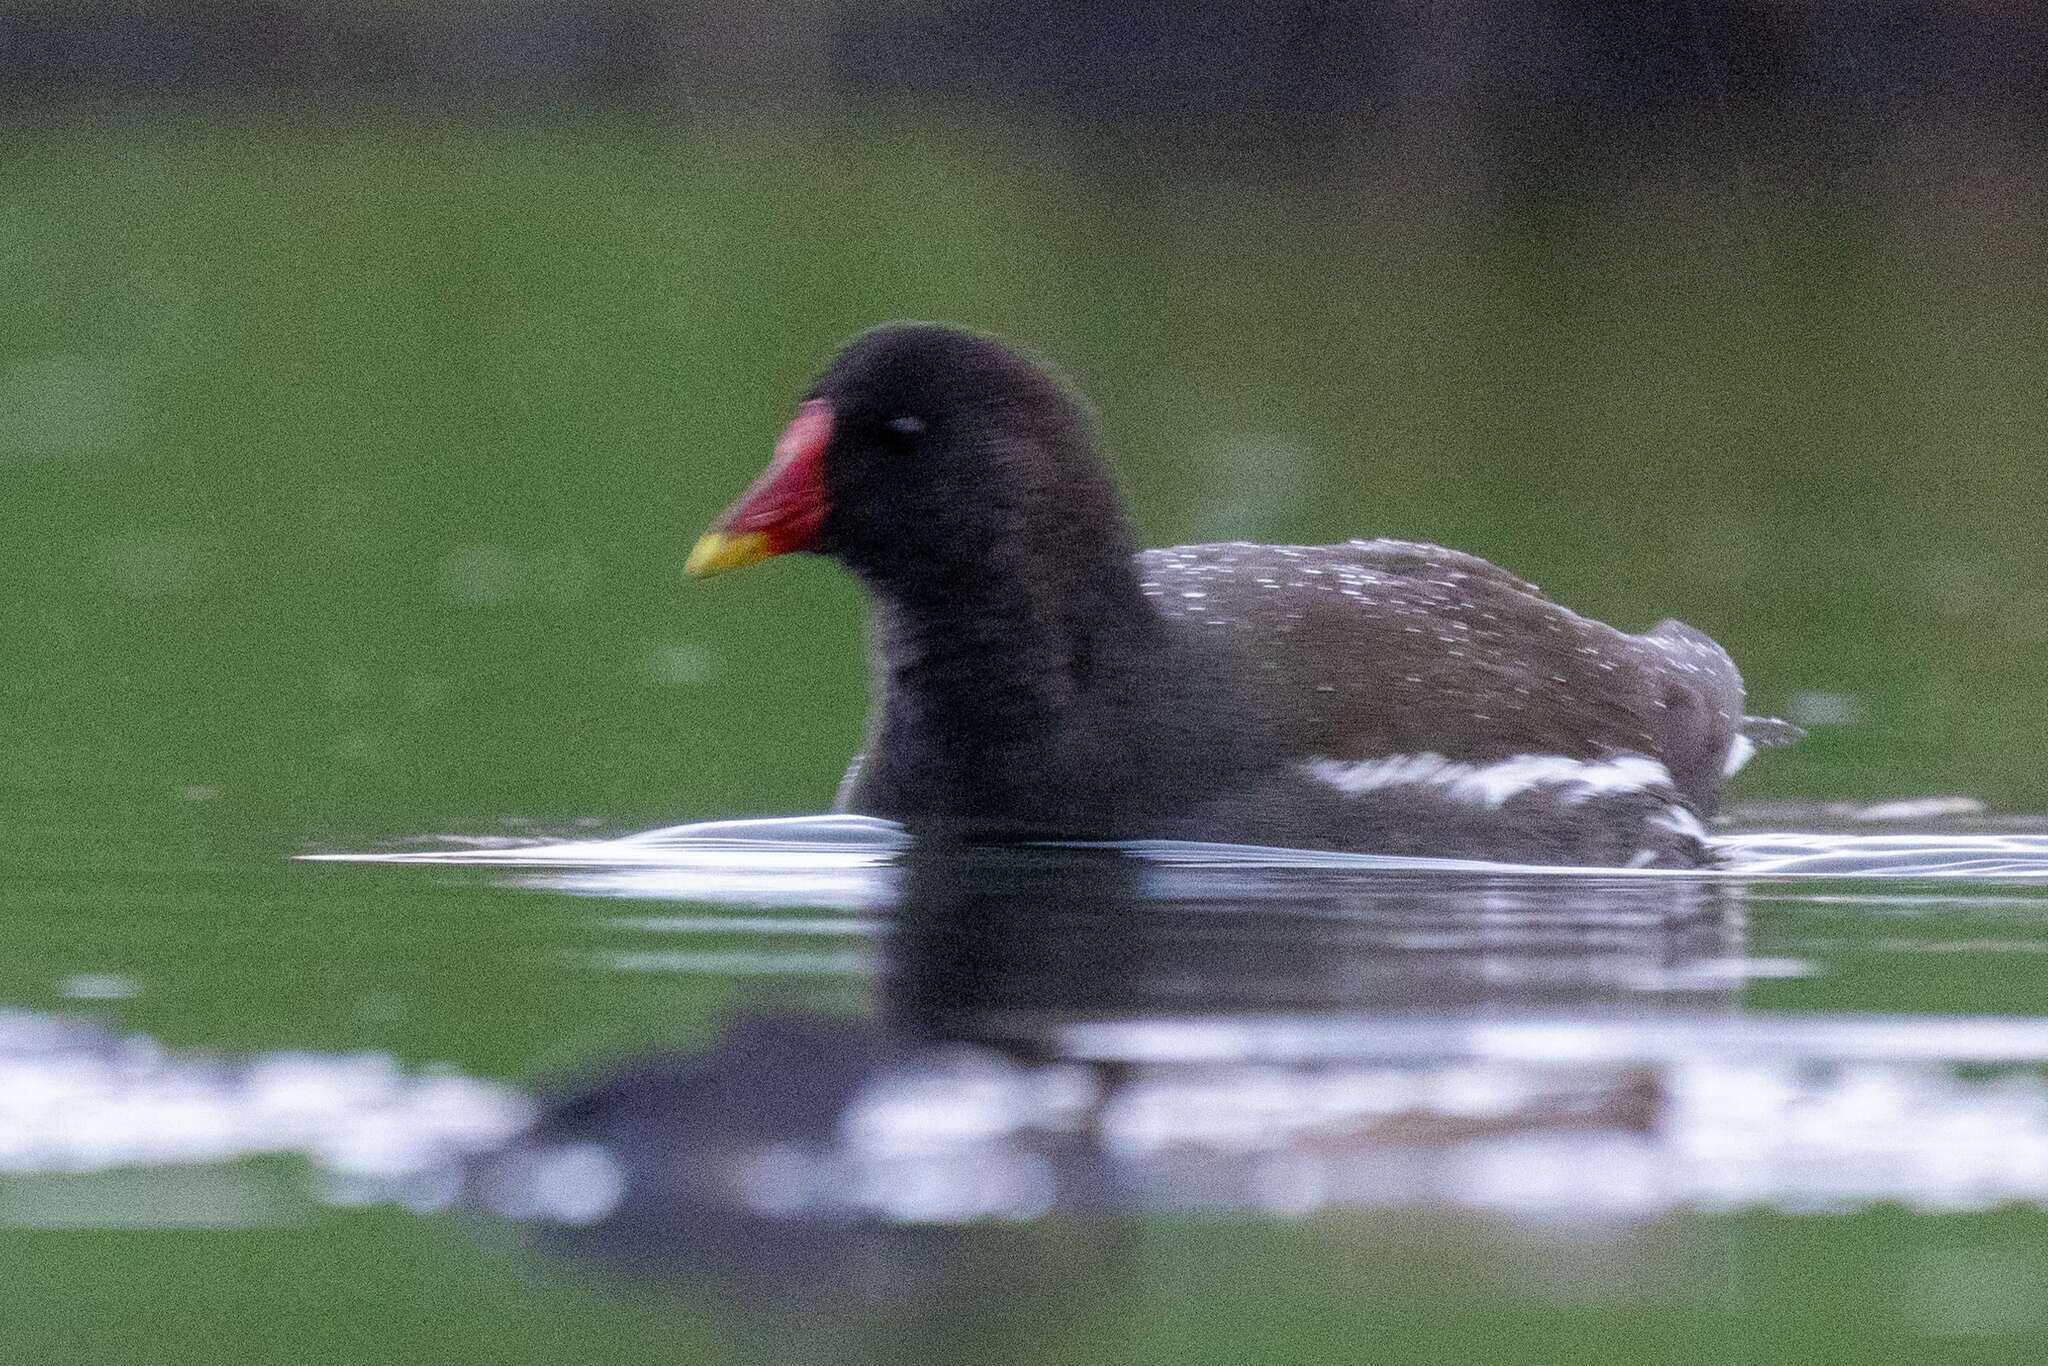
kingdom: Animalia
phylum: Chordata
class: Aves
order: Gruiformes
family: Rallidae
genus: Gallinula
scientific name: Gallinula chloropus
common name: Common moorhen
